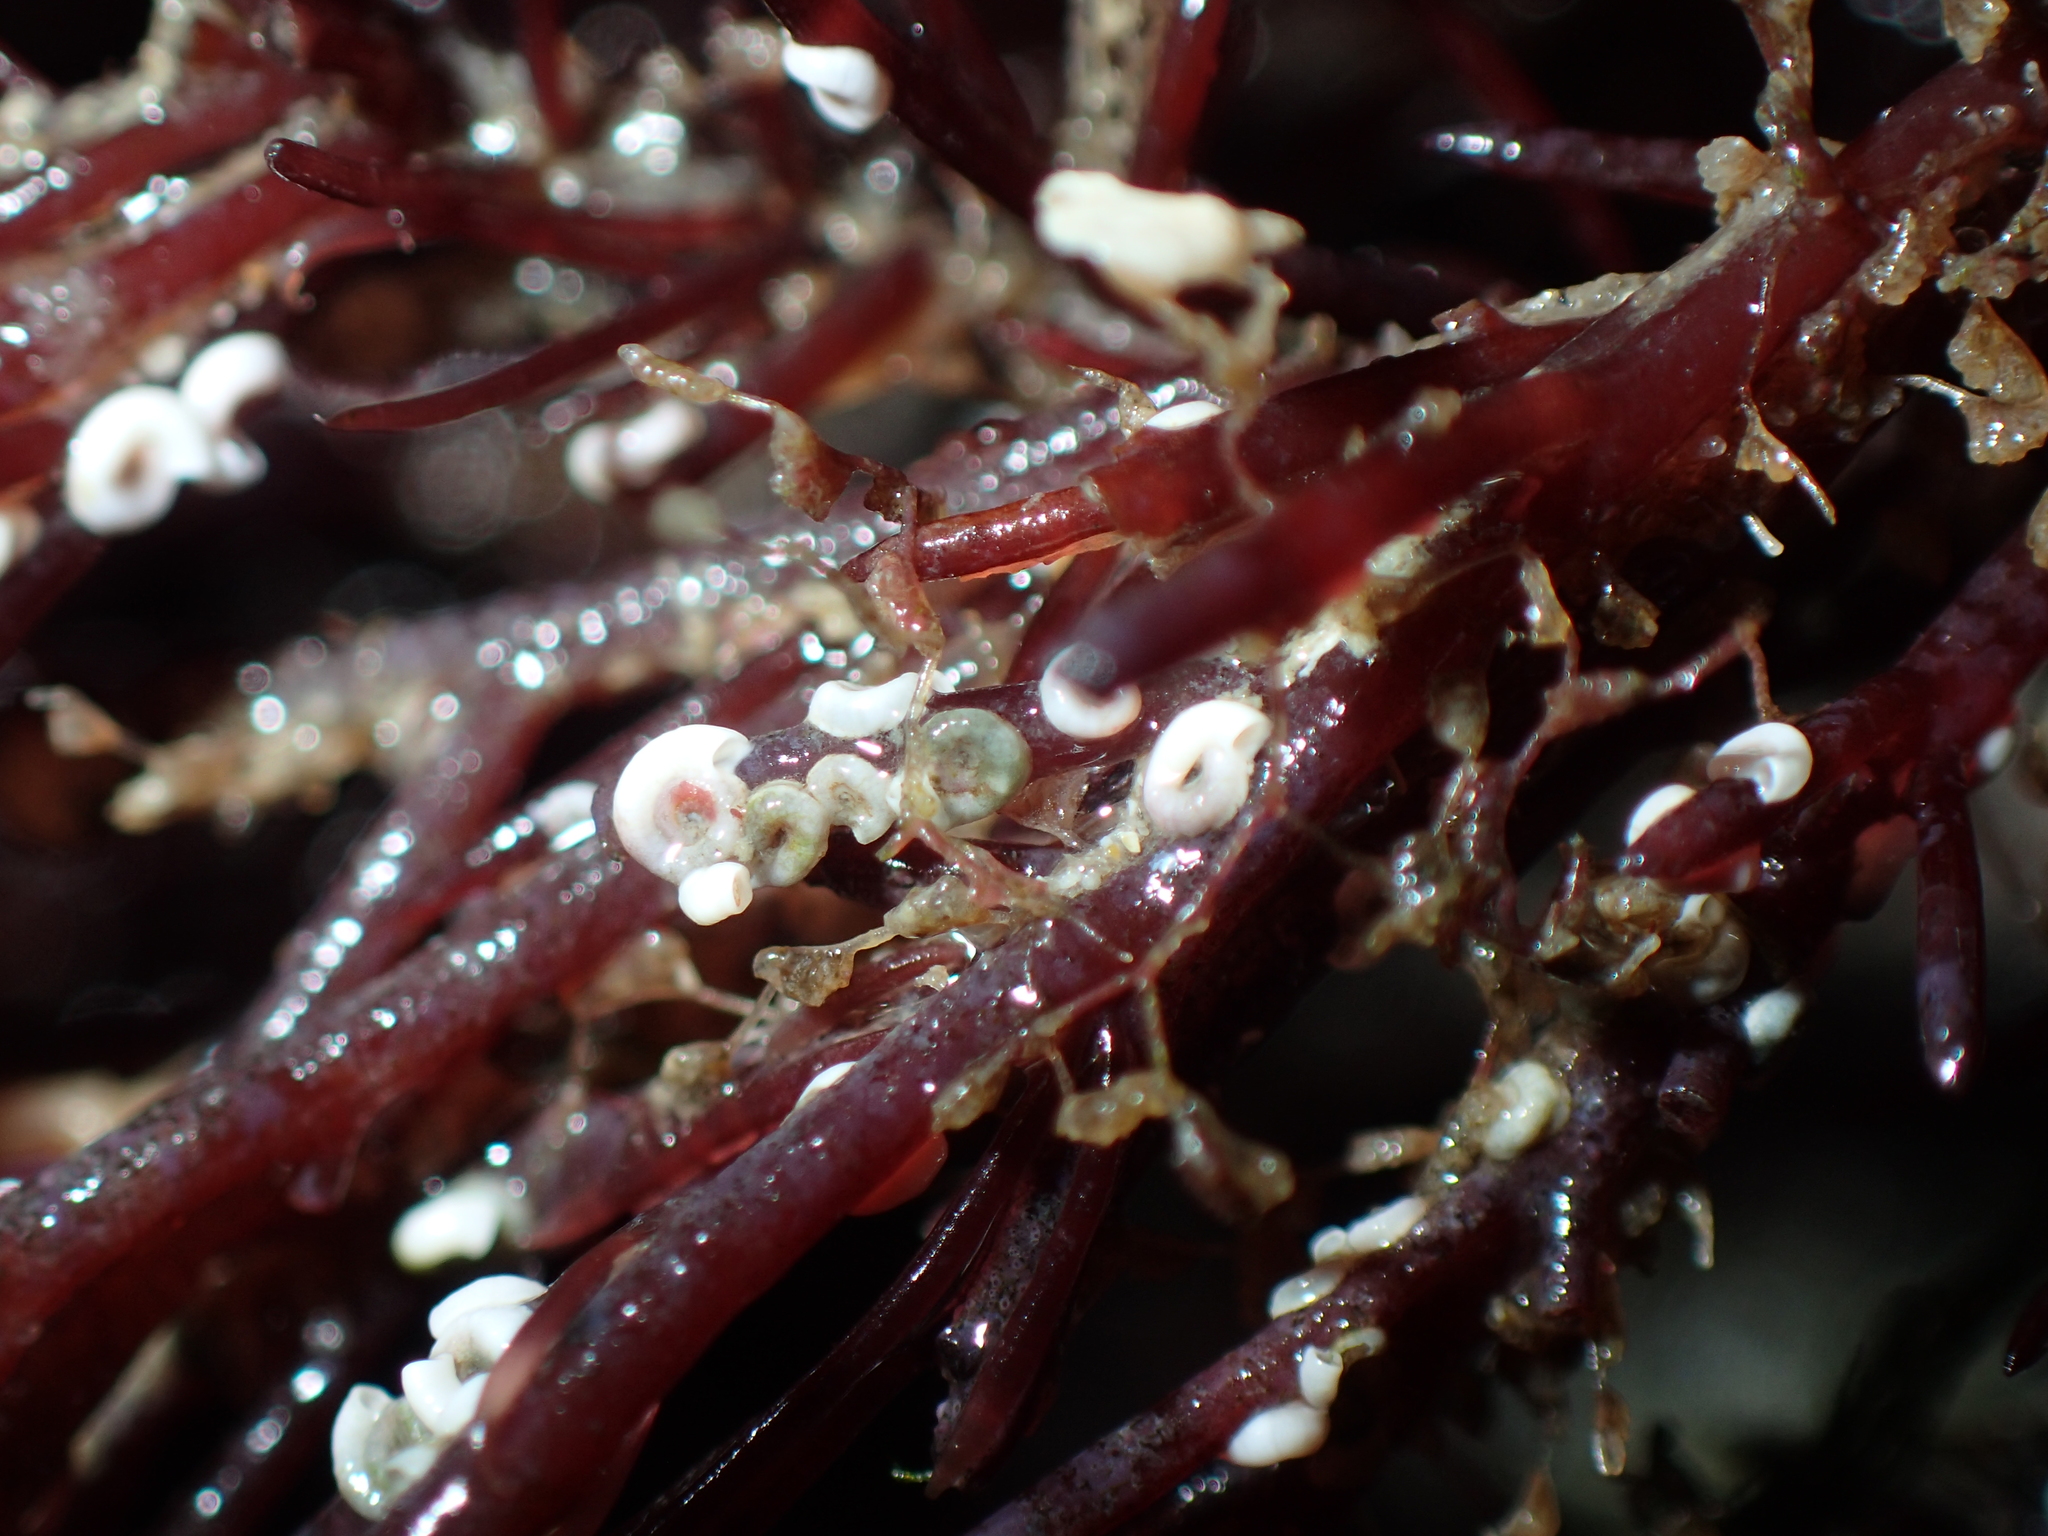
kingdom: Animalia
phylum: Annelida
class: Polychaeta
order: Sabellida
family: Serpulidae
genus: Spirorbis
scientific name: Spirorbis corallinae
